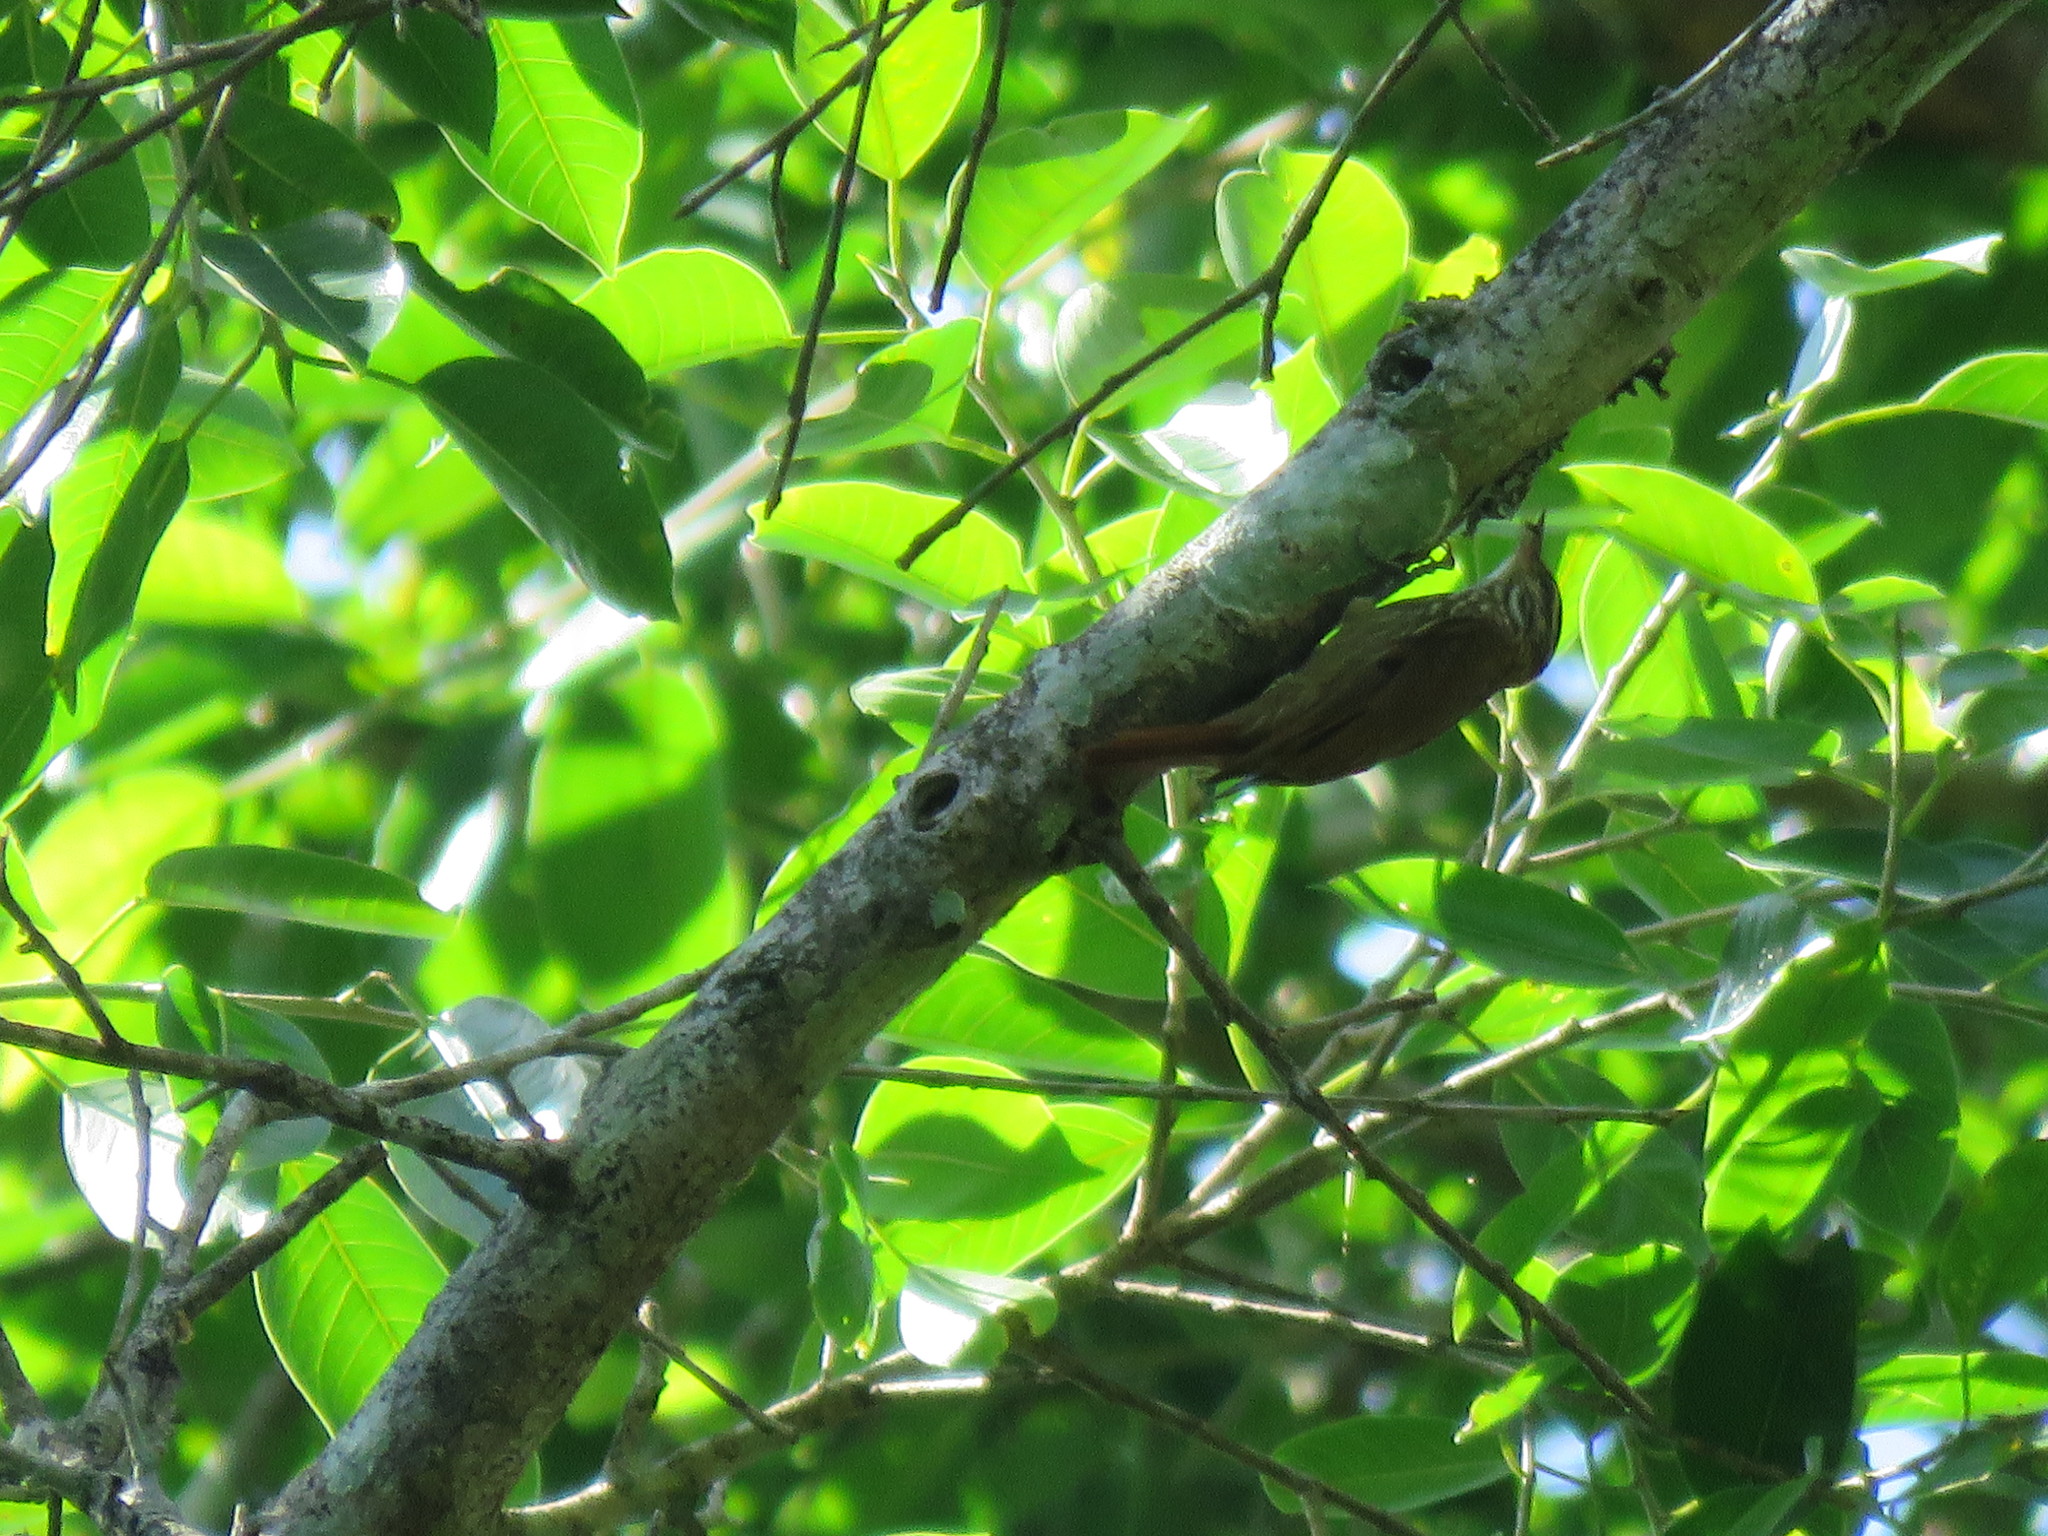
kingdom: Animalia
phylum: Chordata
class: Aves
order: Passeriformes
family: Furnariidae
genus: Xenops
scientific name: Xenops rutilans
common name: Streaked xenops
